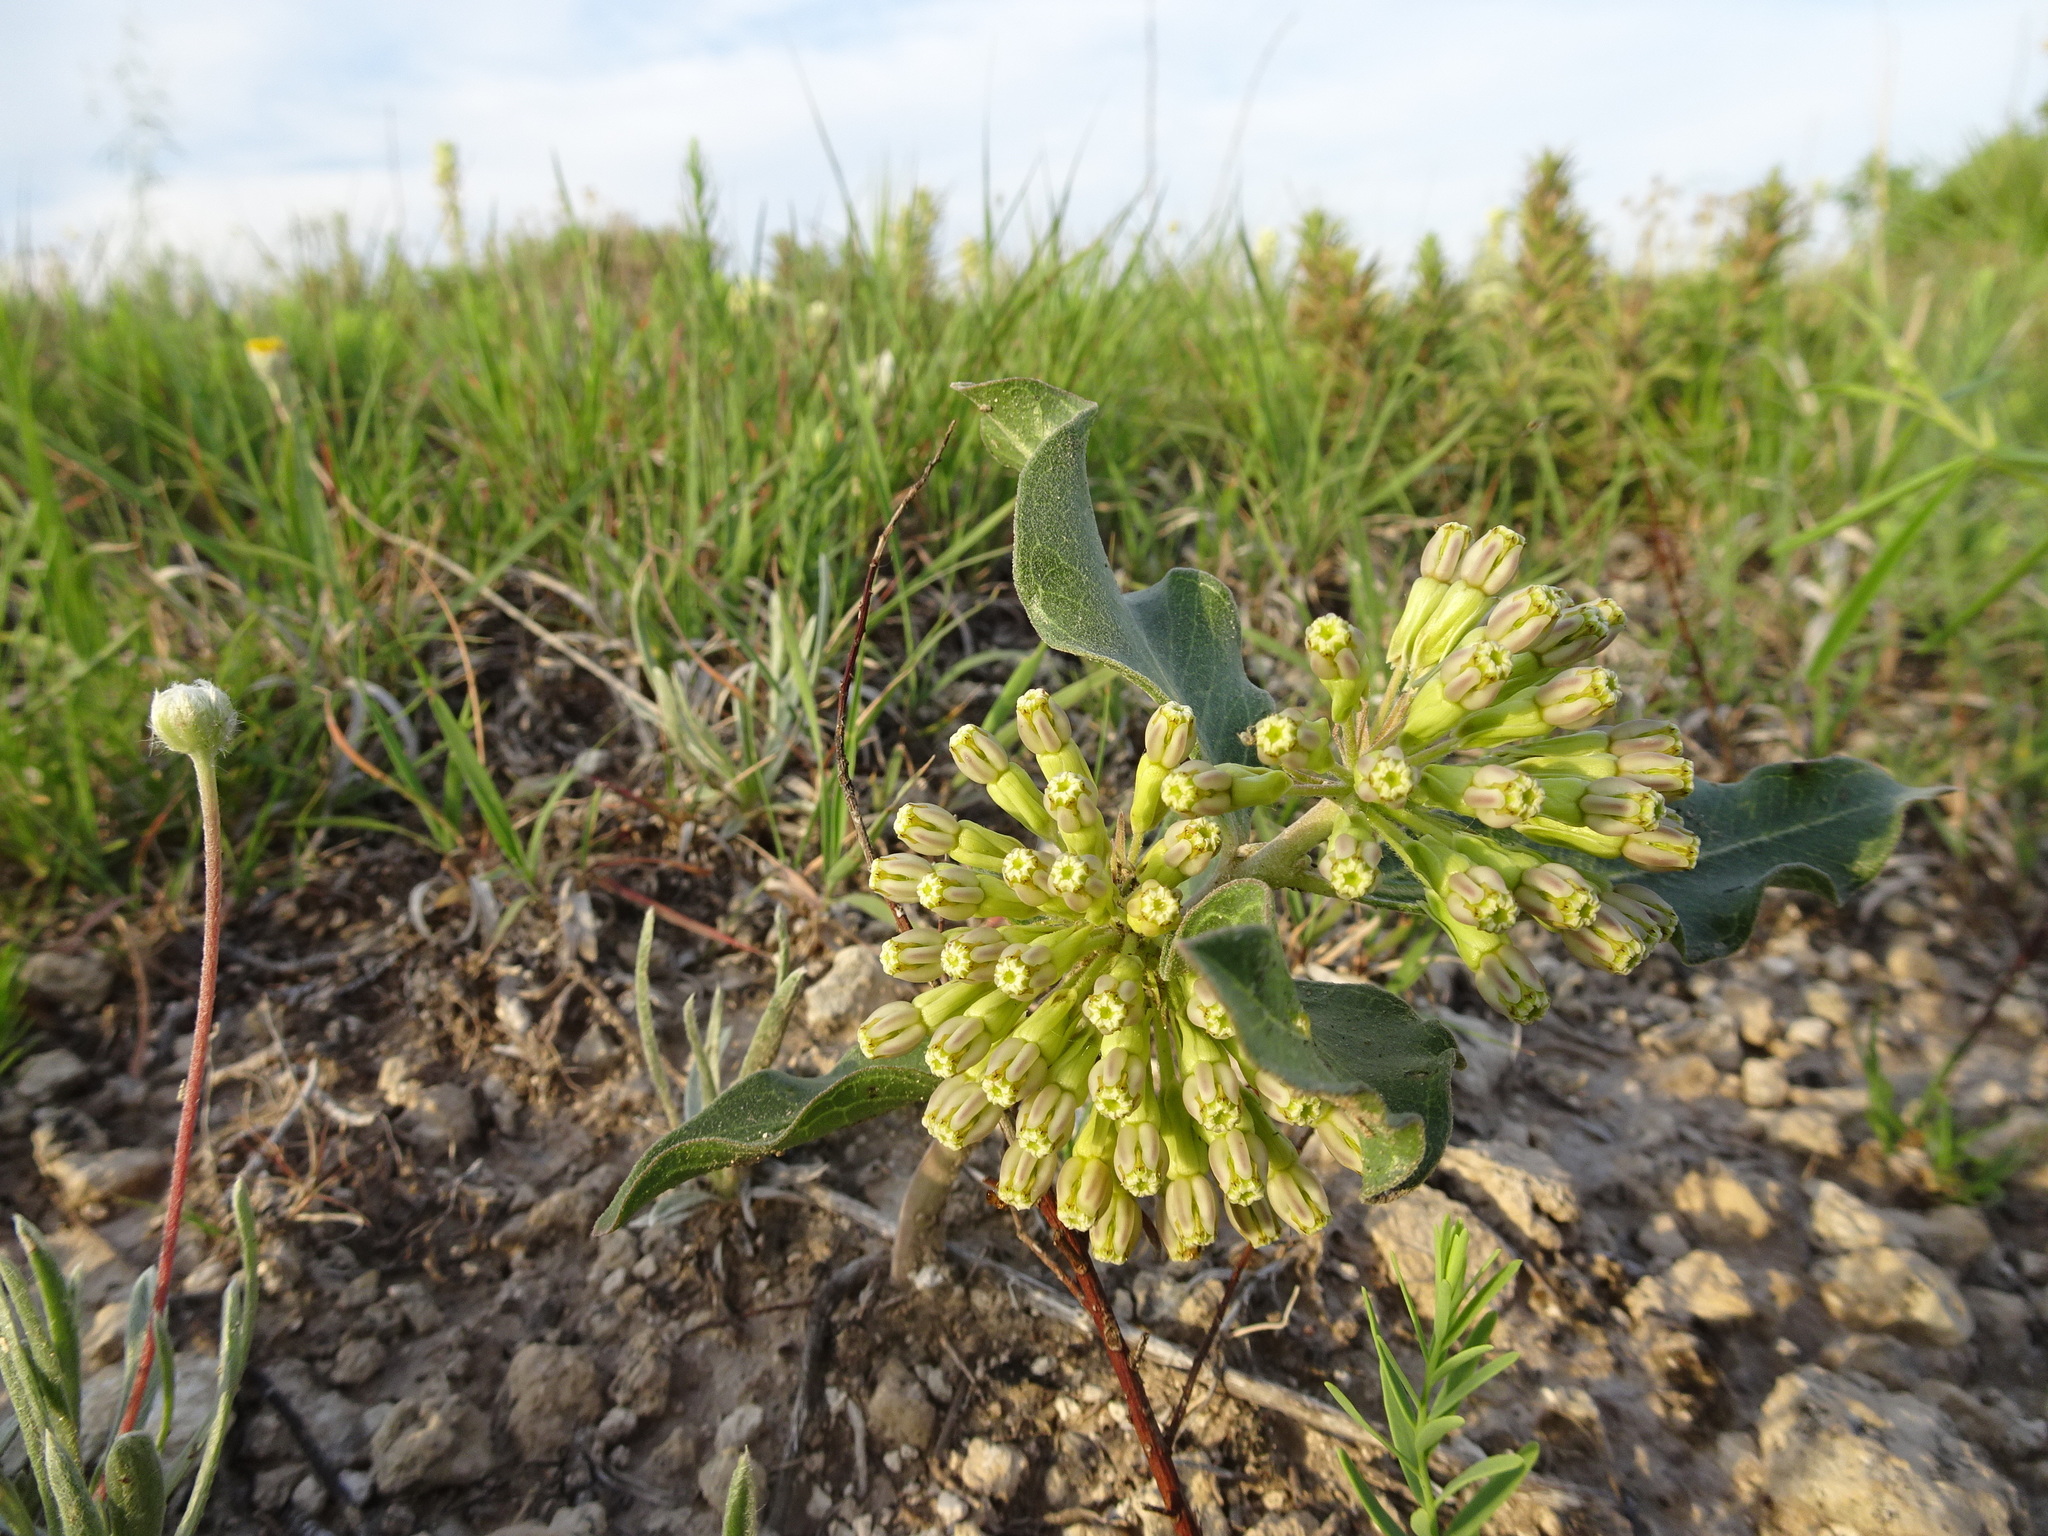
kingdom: Plantae
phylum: Tracheophyta
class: Magnoliopsida
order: Gentianales
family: Apocynaceae
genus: Asclepias
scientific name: Asclepias viridiflora
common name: Green comet milkweed
